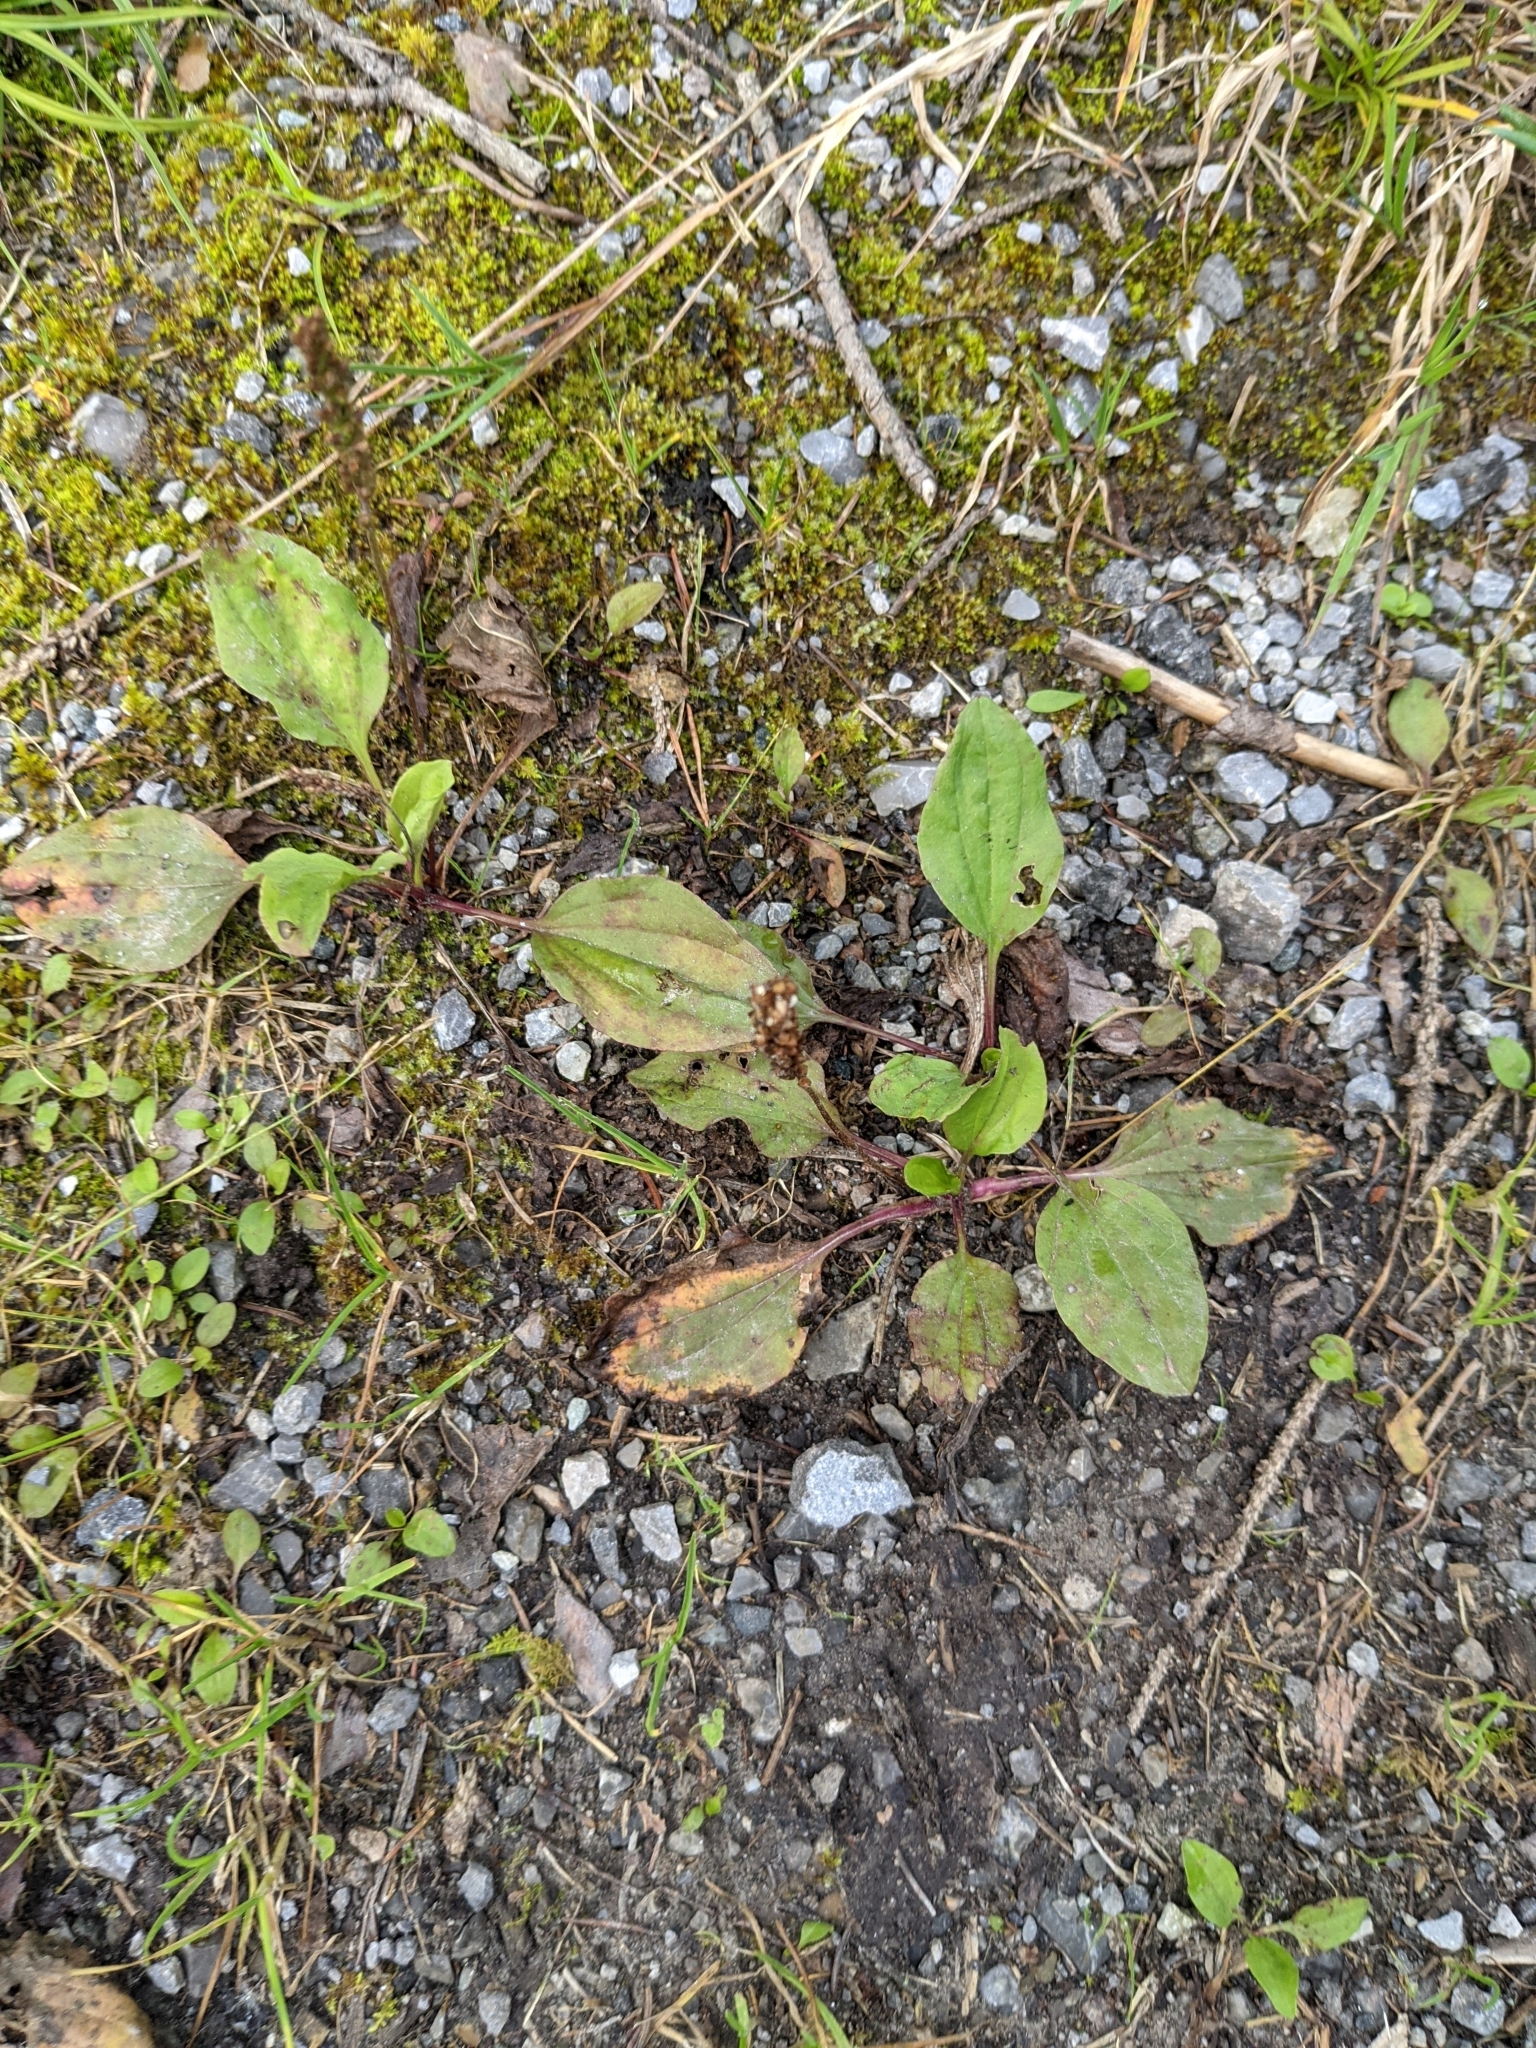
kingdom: Plantae
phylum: Tracheophyta
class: Magnoliopsida
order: Lamiales
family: Plantaginaceae
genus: Plantago
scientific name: Plantago major
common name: Common plantain
